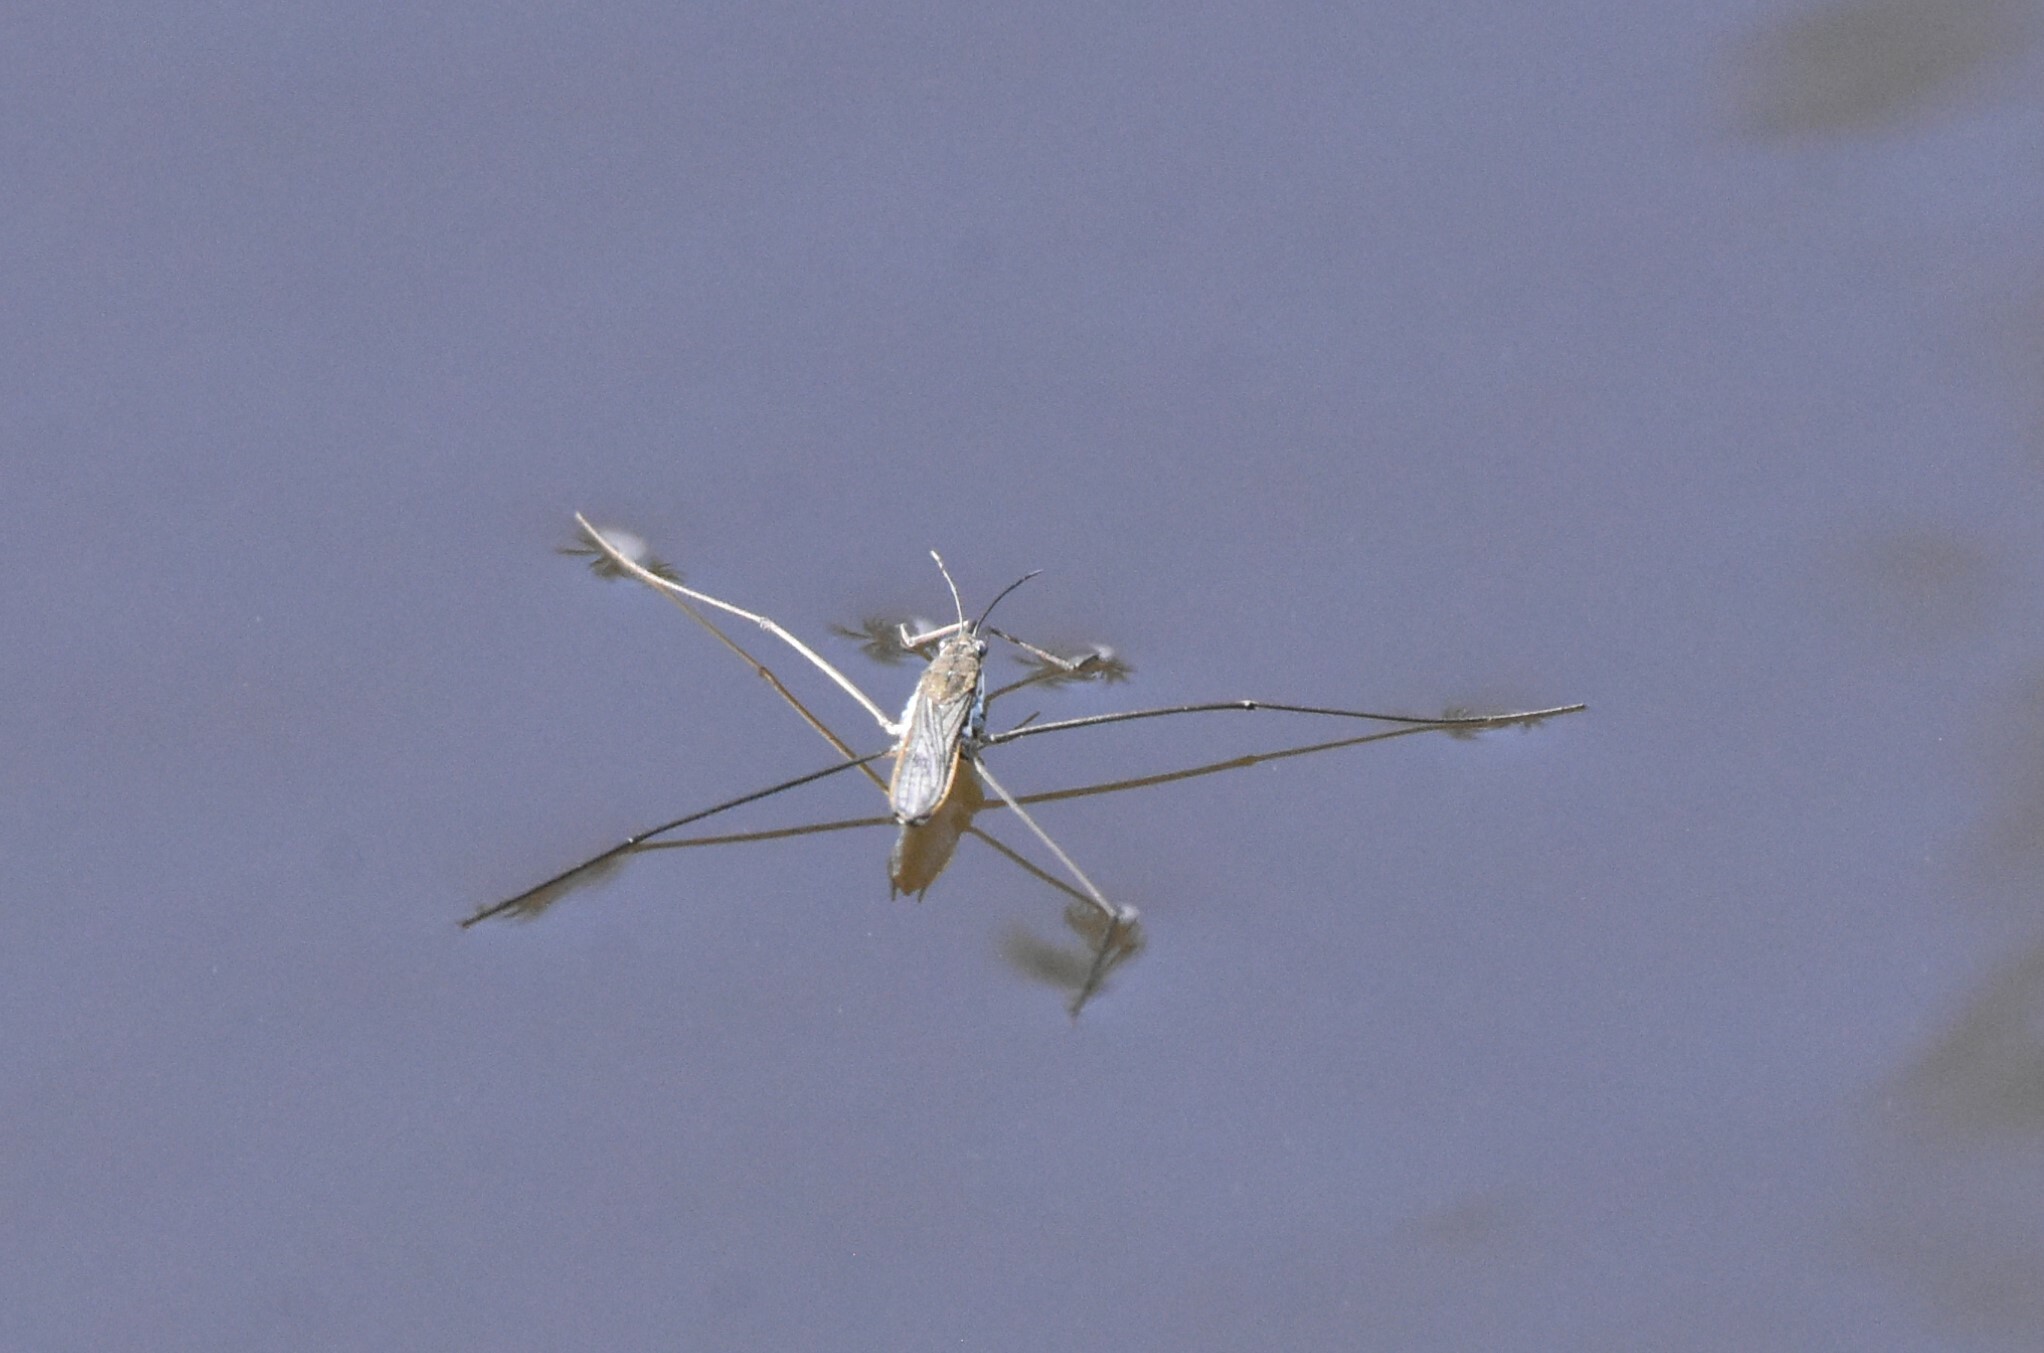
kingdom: Animalia
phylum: Arthropoda
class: Insecta
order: Hemiptera
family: Gerridae
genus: Aquarius
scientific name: Aquarius paludum
